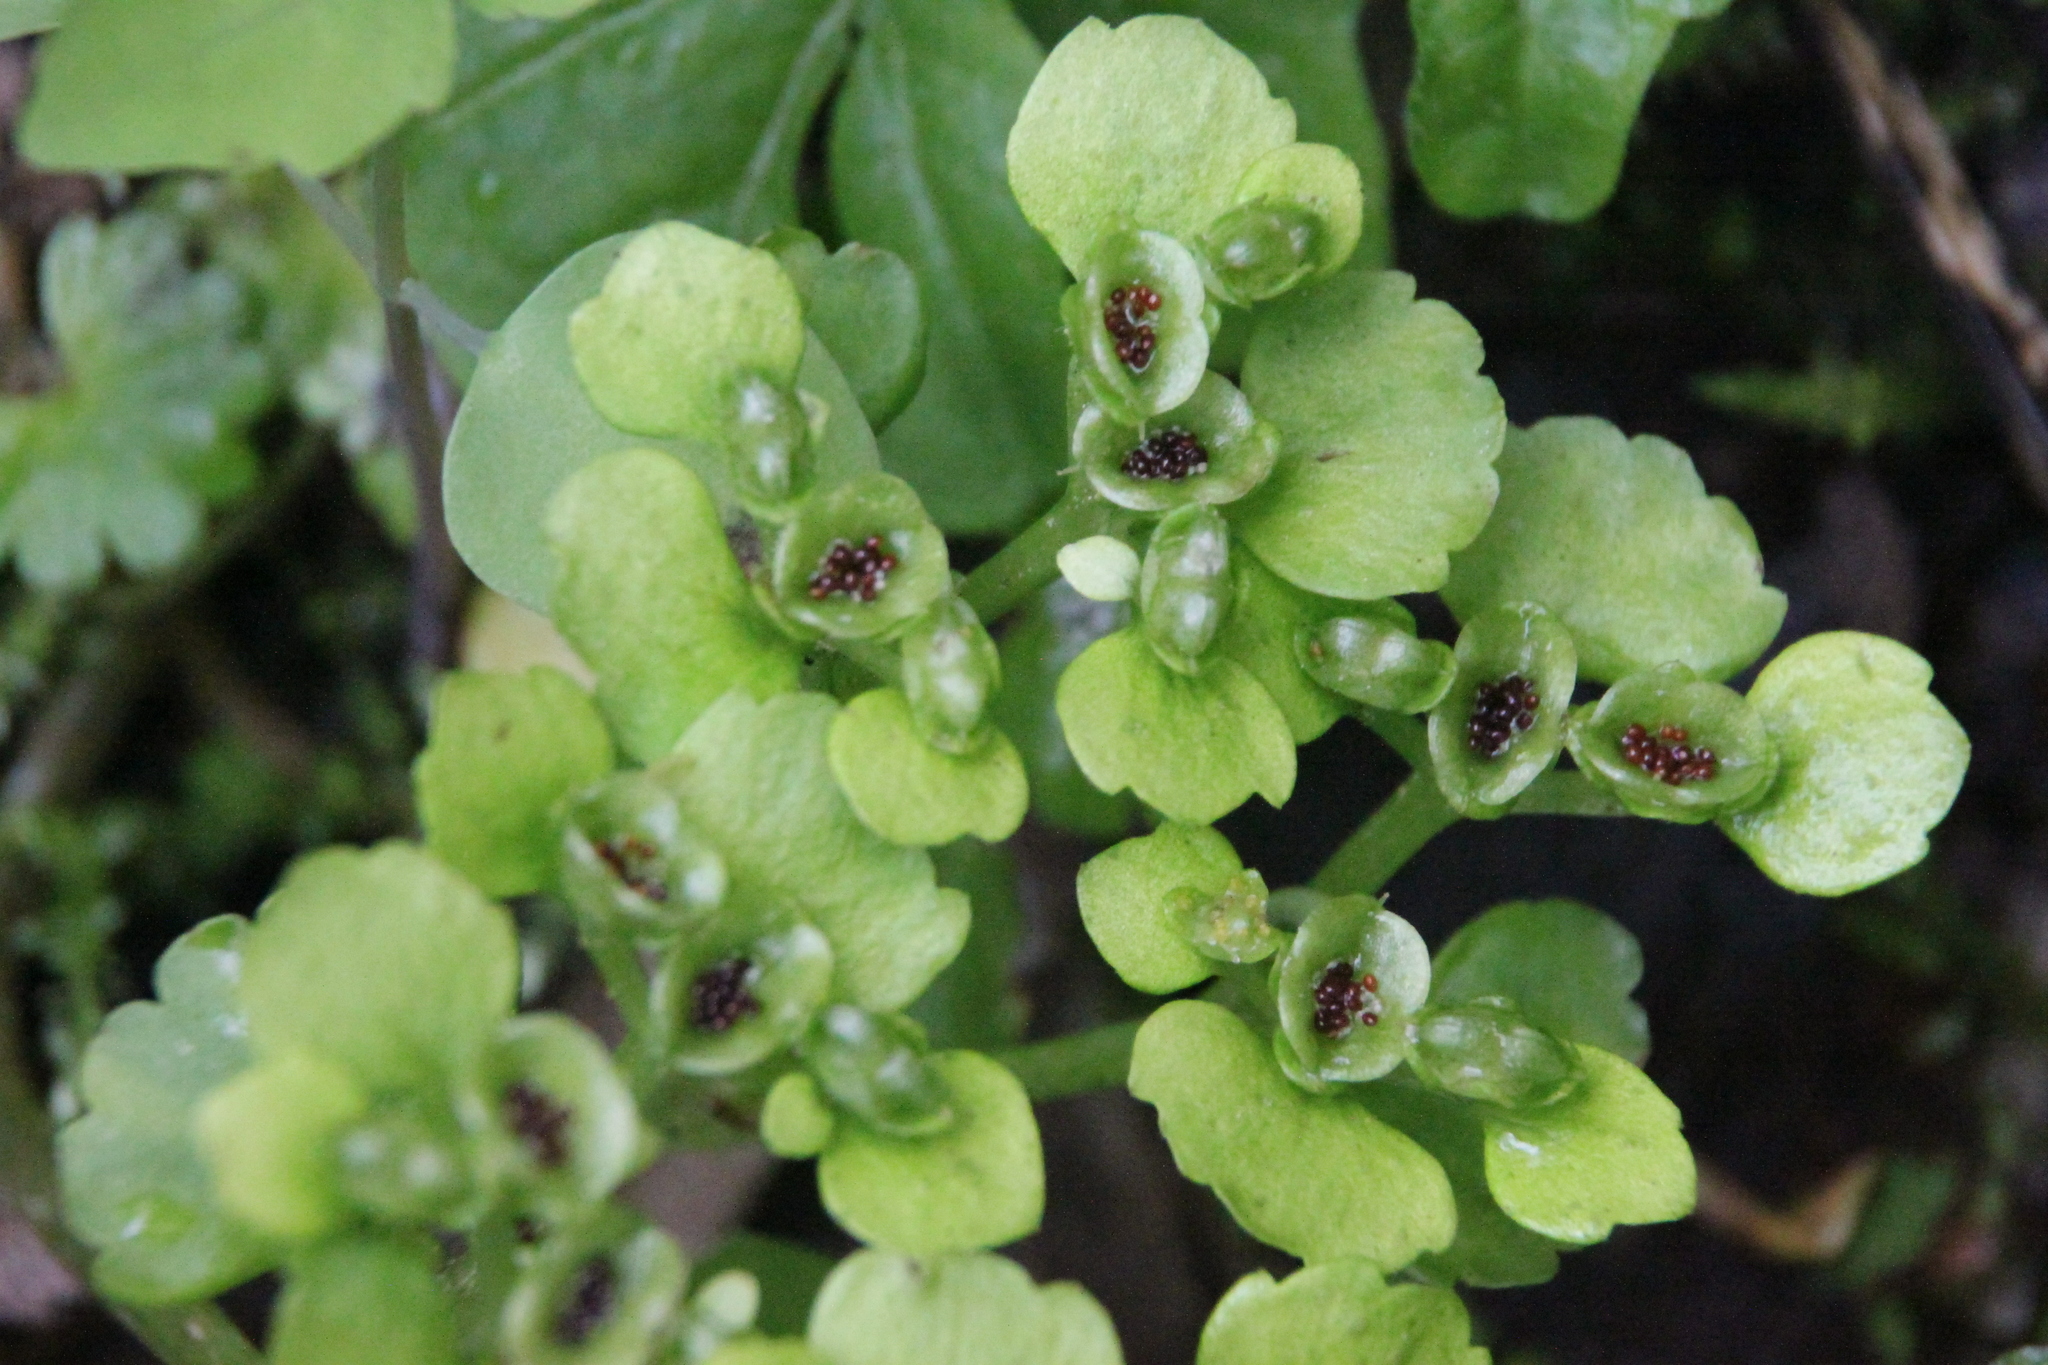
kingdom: Plantae
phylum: Tracheophyta
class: Magnoliopsida
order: Saxifragales
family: Saxifragaceae
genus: Chrysosplenium
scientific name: Chrysosplenium alternifolium
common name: Alternate-leaved golden-saxifrage
